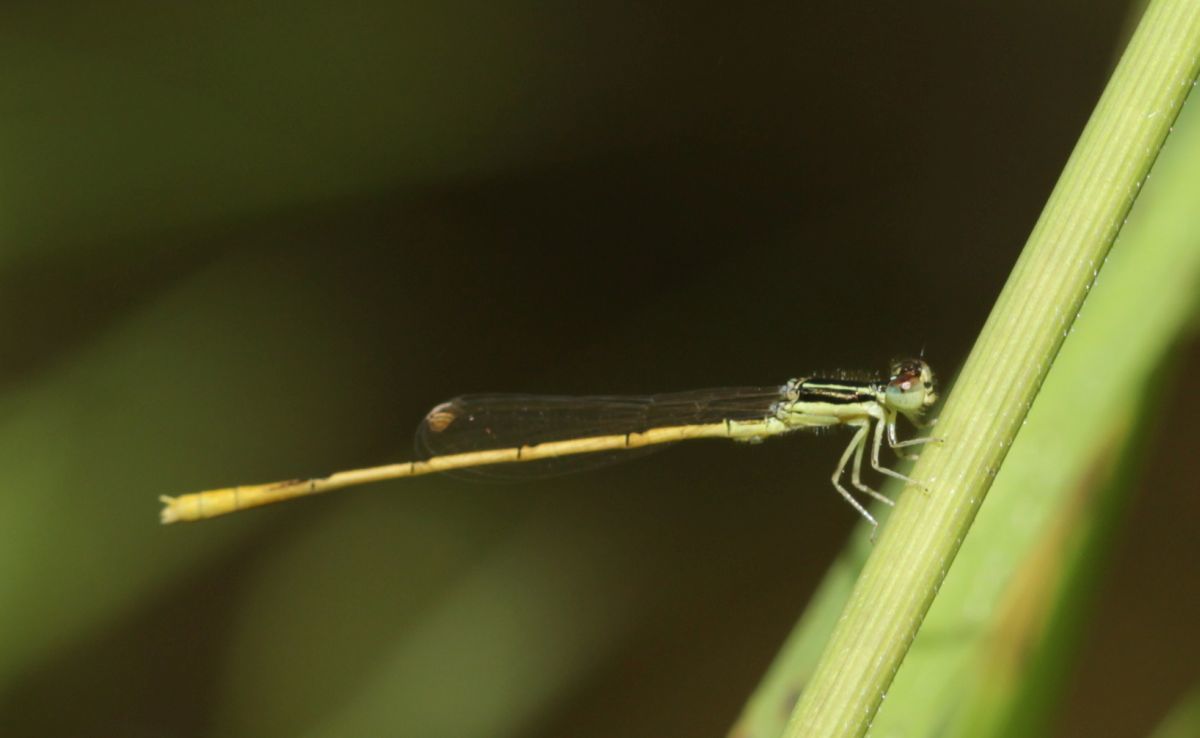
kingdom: Animalia
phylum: Arthropoda
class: Insecta
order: Odonata
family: Coenagrionidae
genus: Ischnura
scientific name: Ischnura hastata
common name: Citrine forktail
